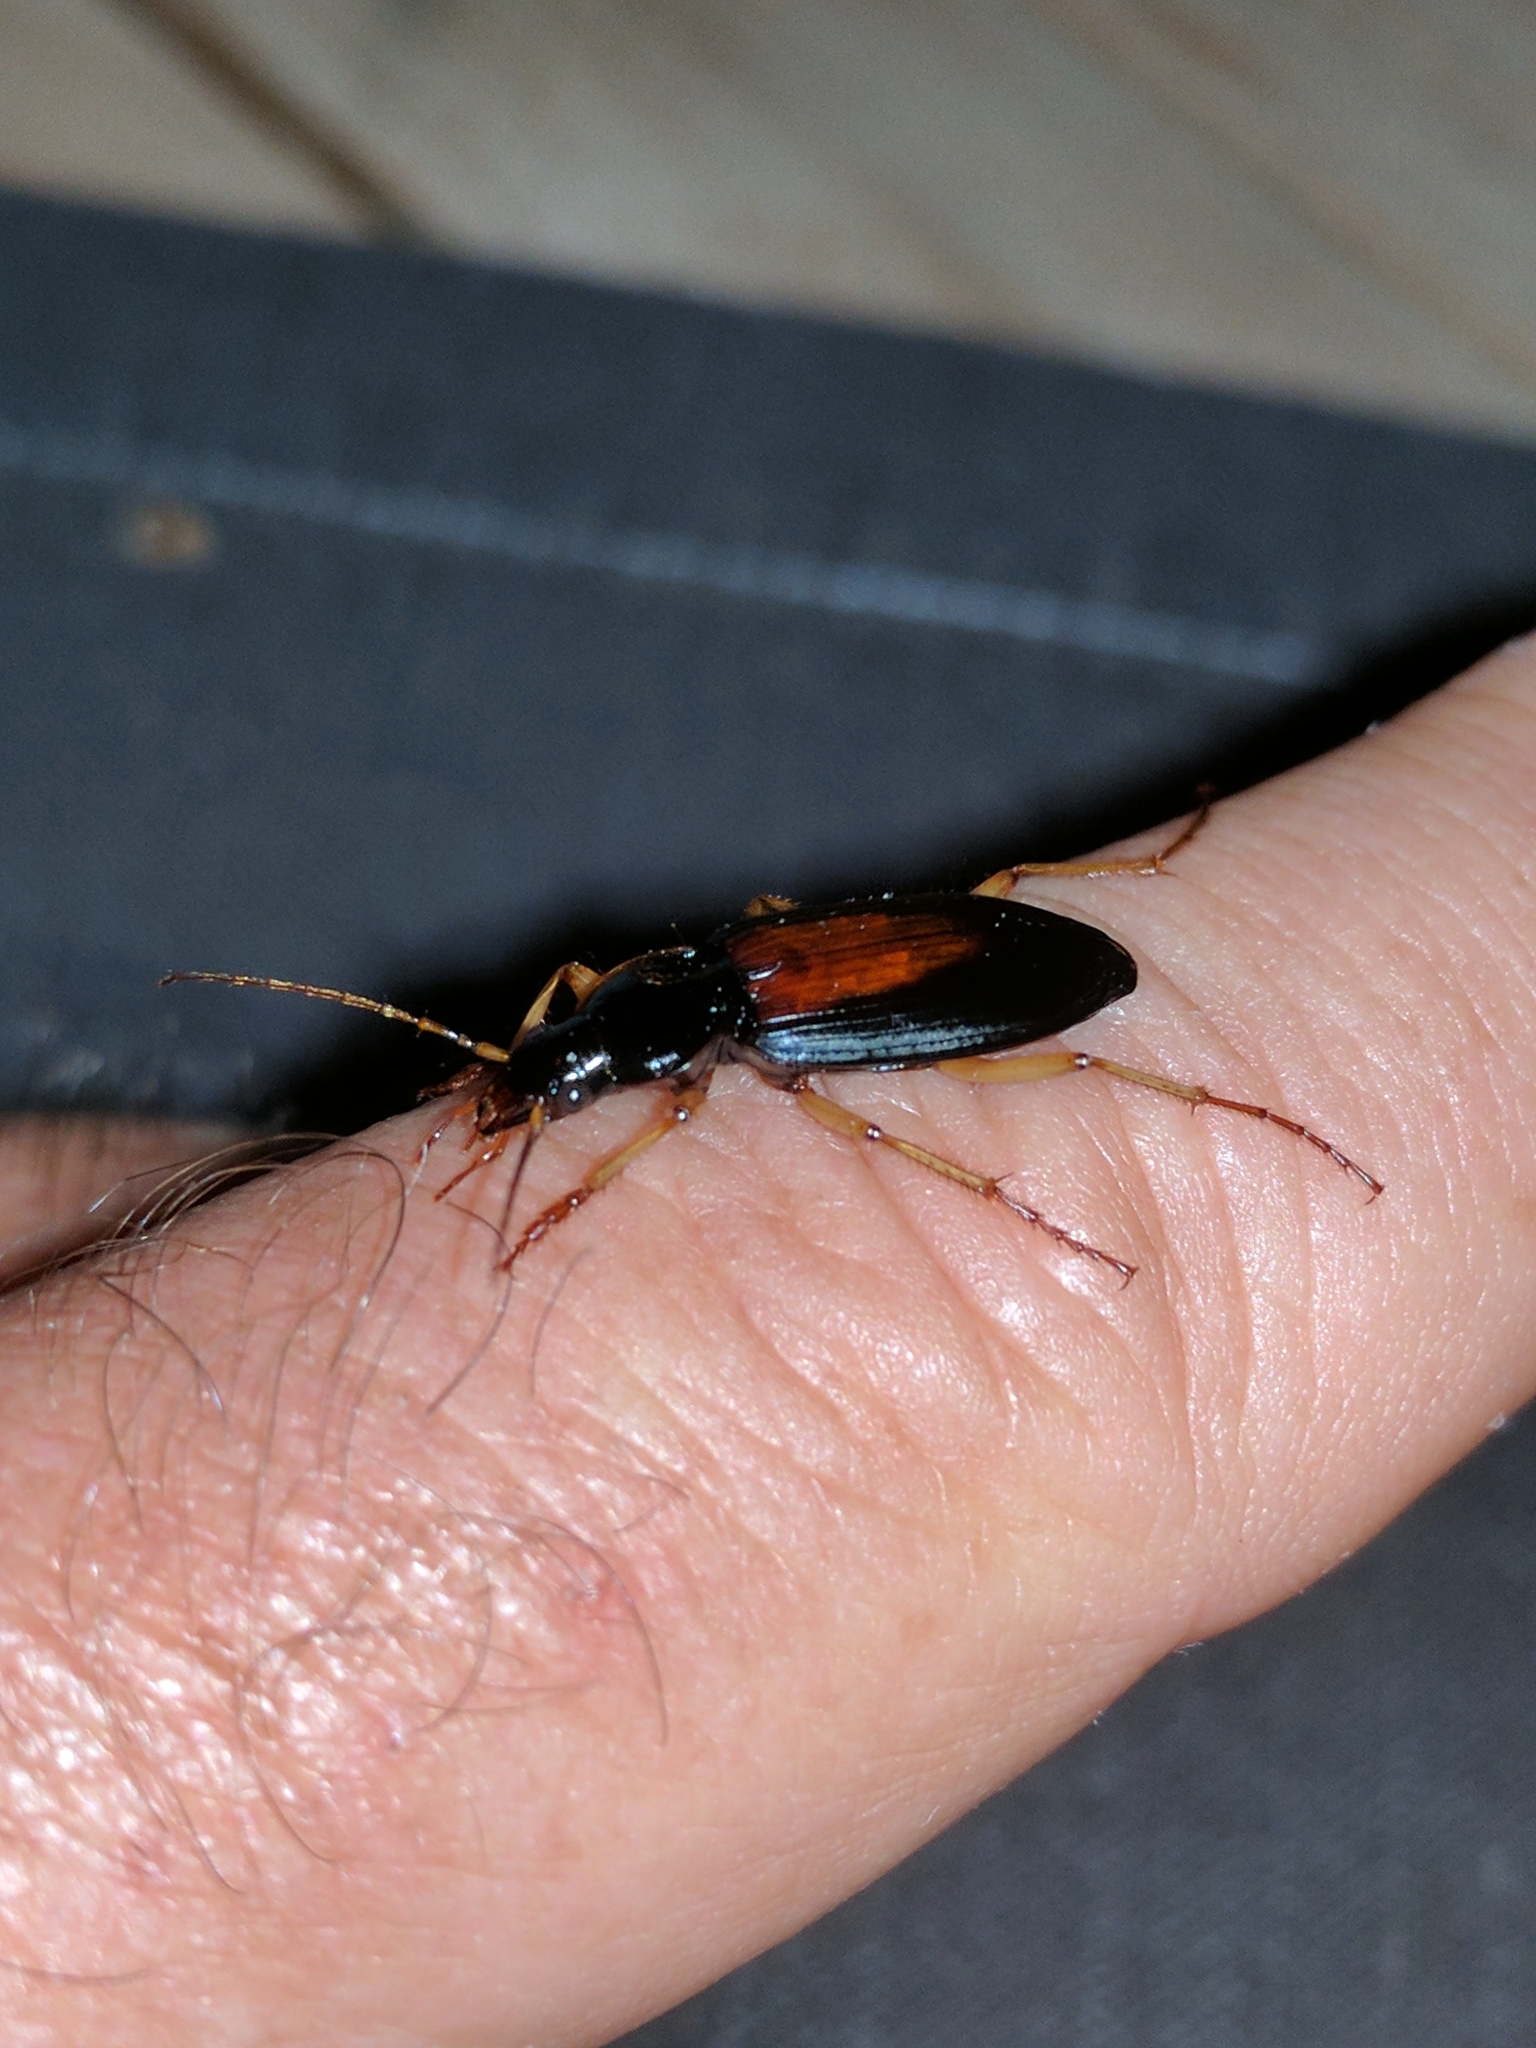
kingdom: Animalia
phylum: Arthropoda
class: Insecta
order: Coleoptera
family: Carabidae
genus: Dolichus
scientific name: Dolichus halensis
